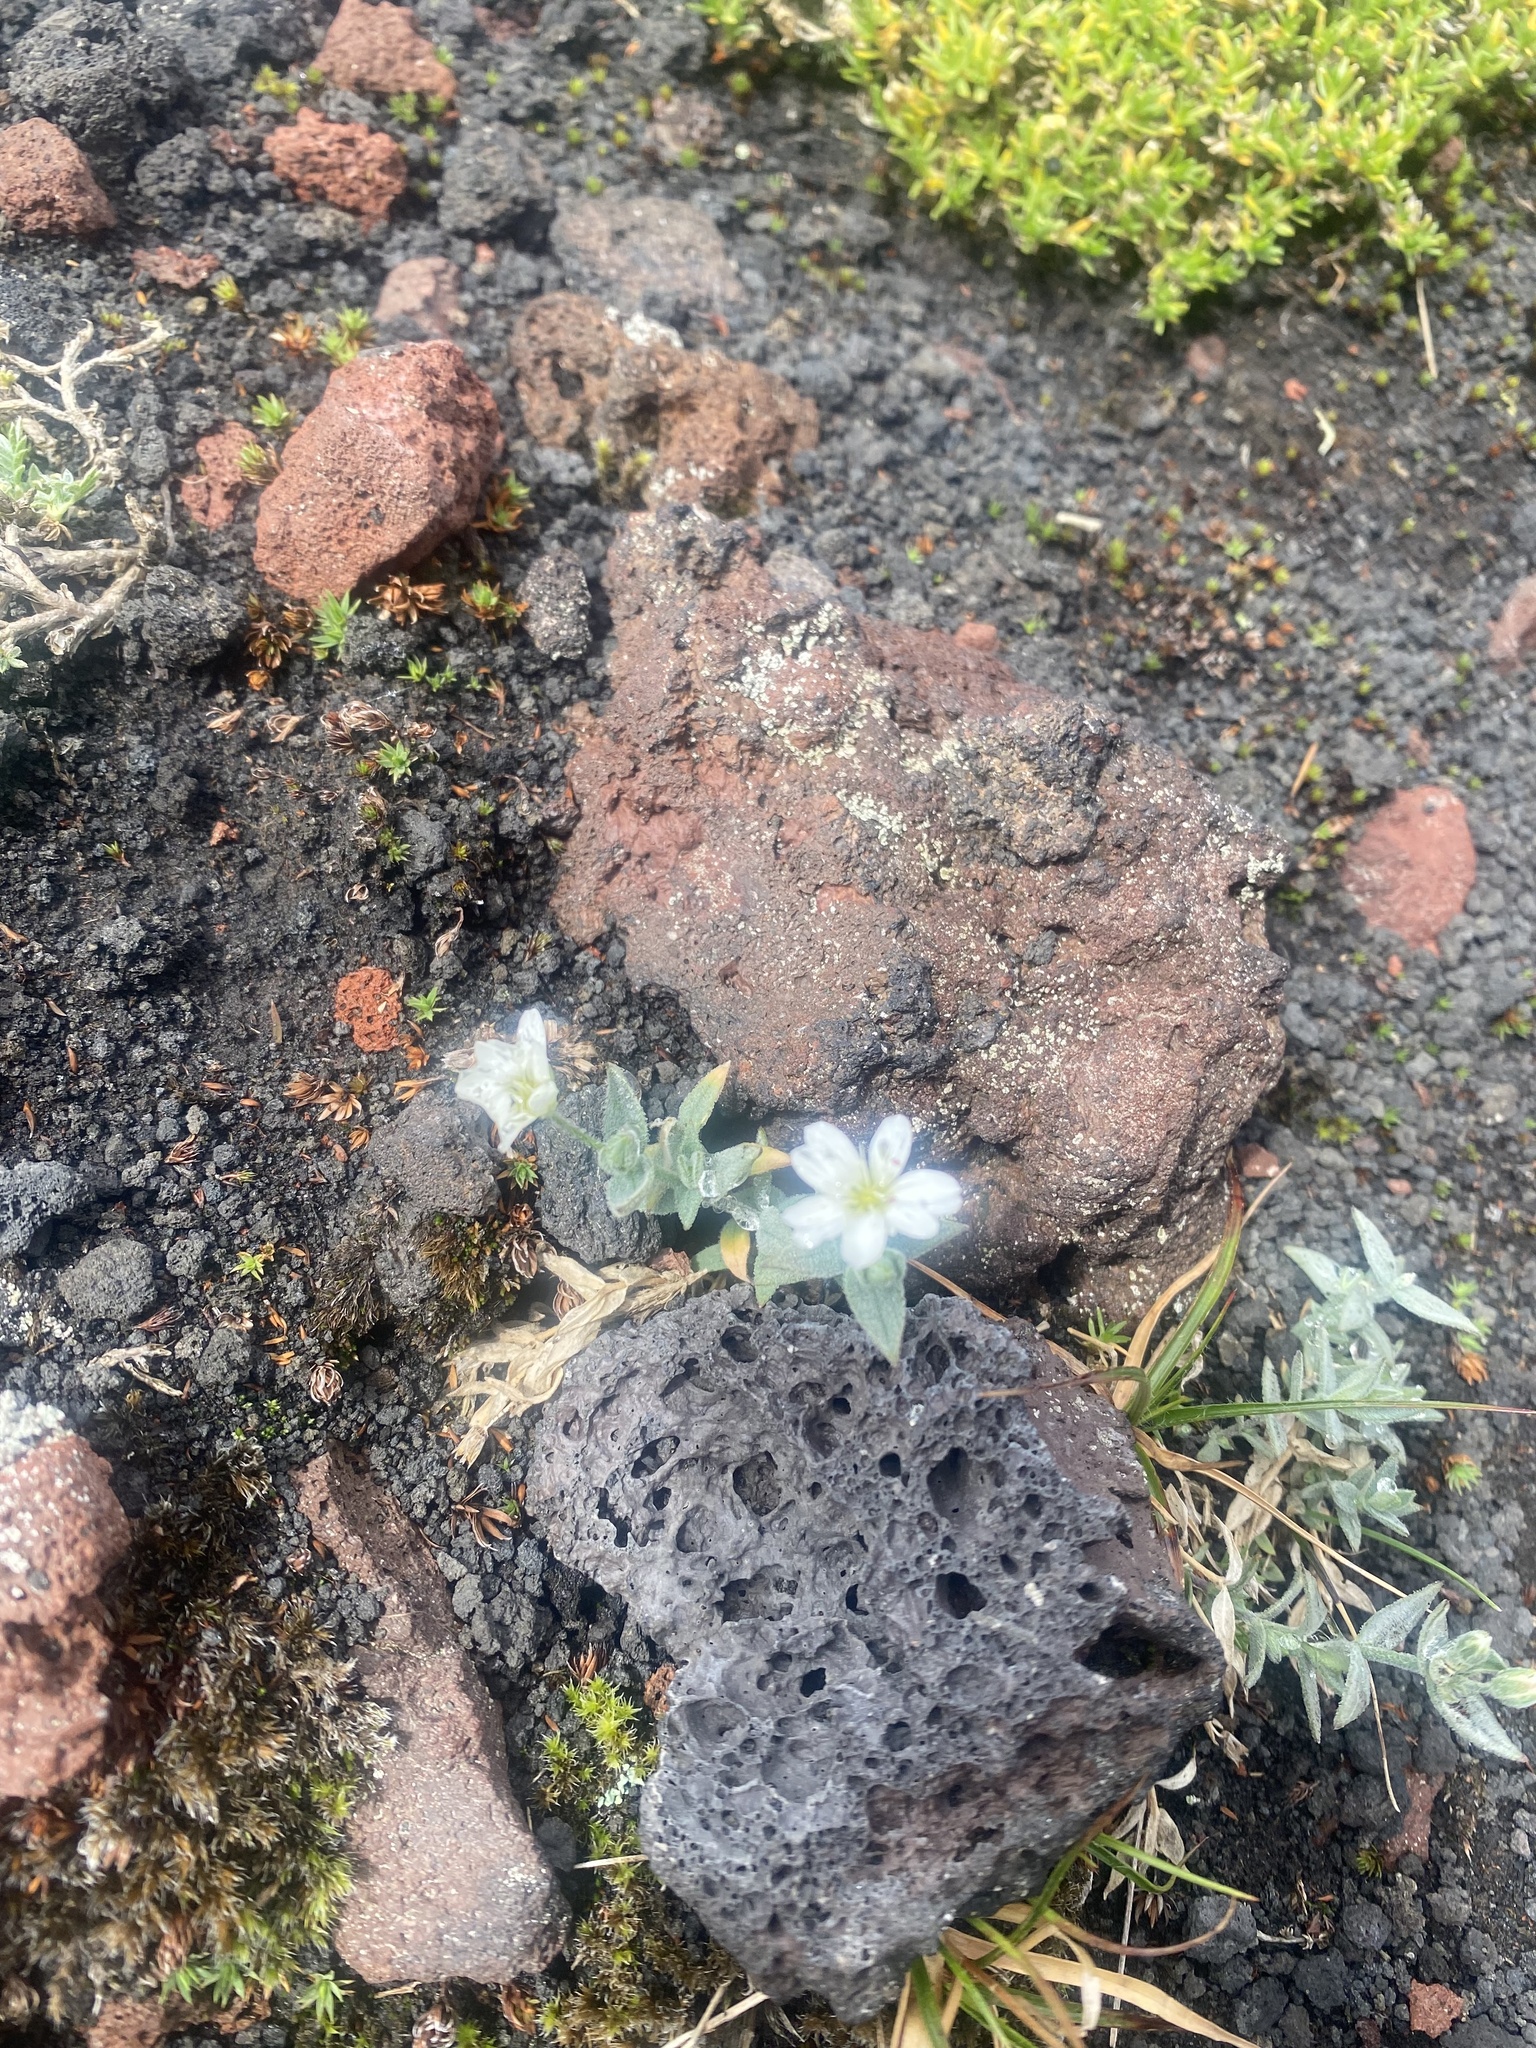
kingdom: Plantae
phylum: Tracheophyta
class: Magnoliopsida
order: Caryophyllales
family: Caryophyllaceae
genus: Stellaria
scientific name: Stellaria eschscholtziana
